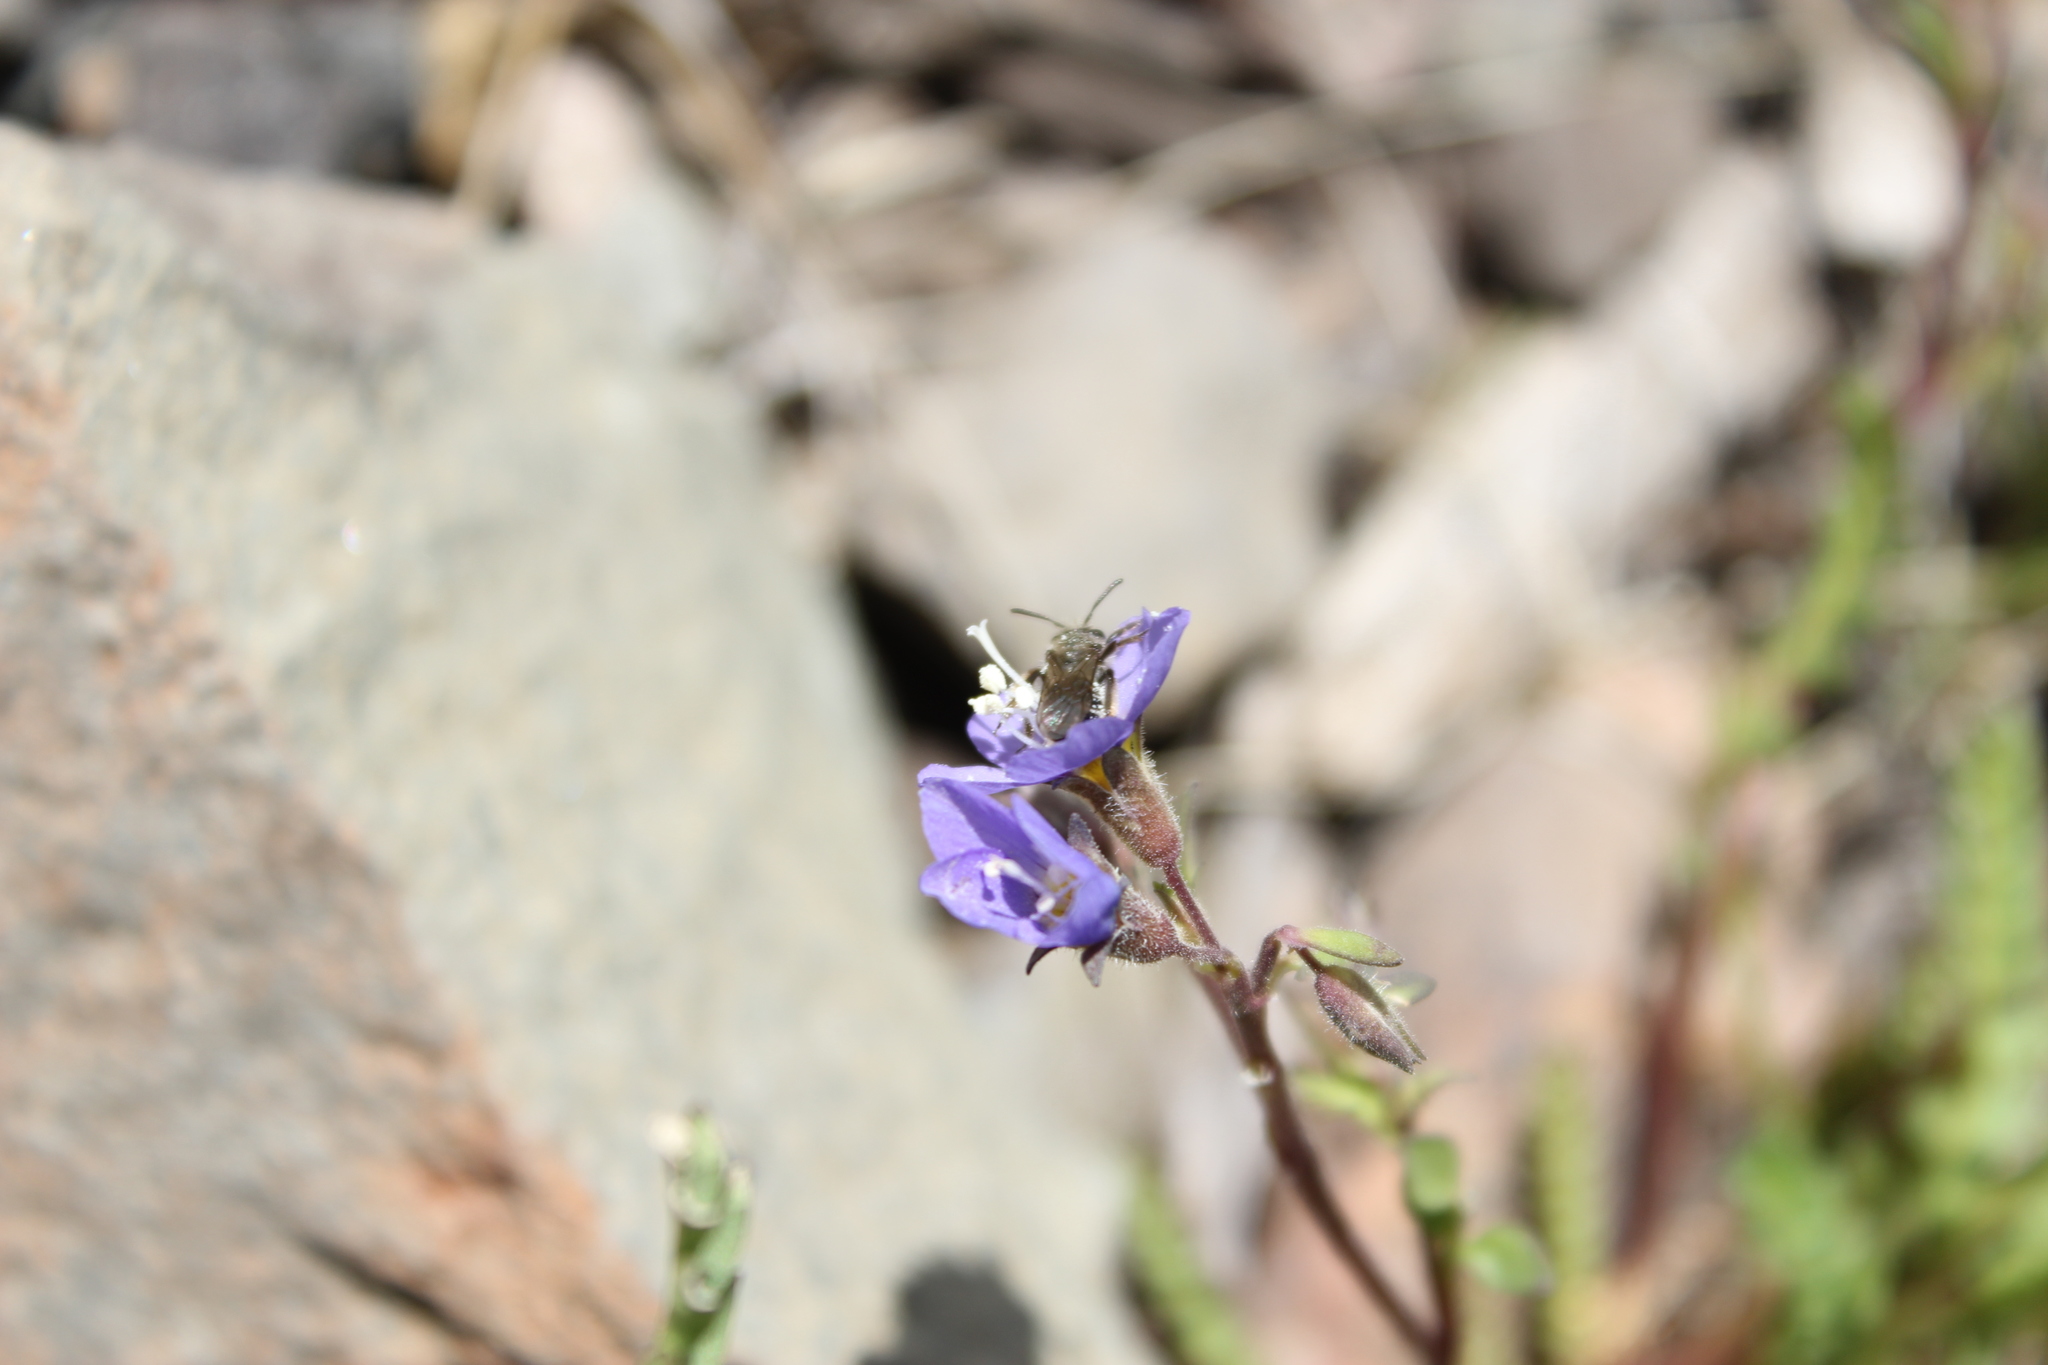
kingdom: Plantae
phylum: Tracheophyta
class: Magnoliopsida
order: Ericales
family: Polemoniaceae
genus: Polemonium
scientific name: Polemonium pulcherrimum
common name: Short jacob's-ladder
